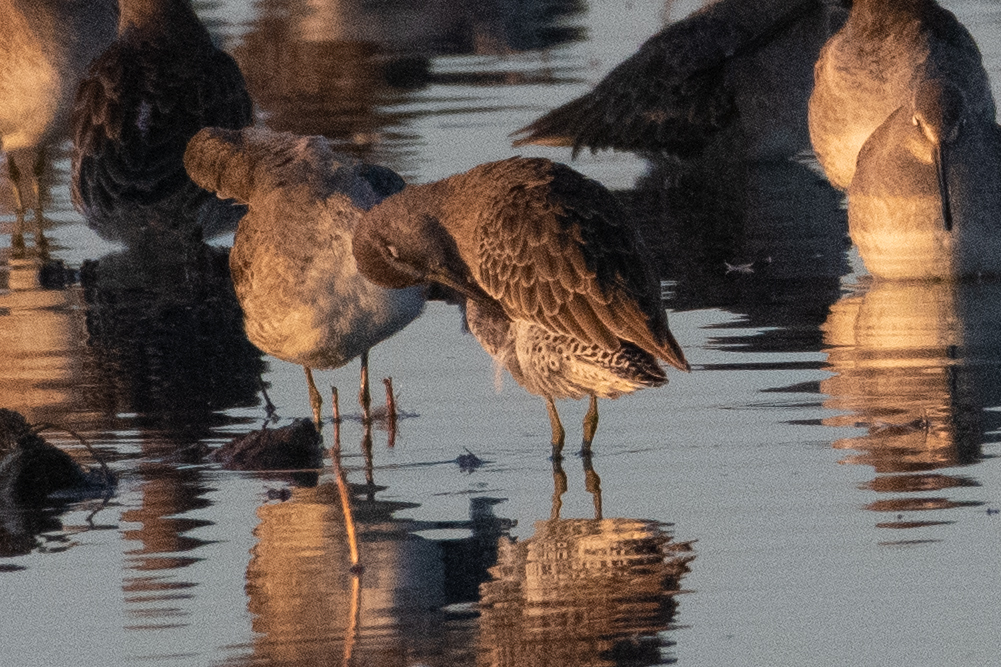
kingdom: Animalia
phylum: Chordata
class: Aves
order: Charadriiformes
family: Scolopacidae
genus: Limnodromus
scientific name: Limnodromus scolopaceus
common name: Long-billed dowitcher
